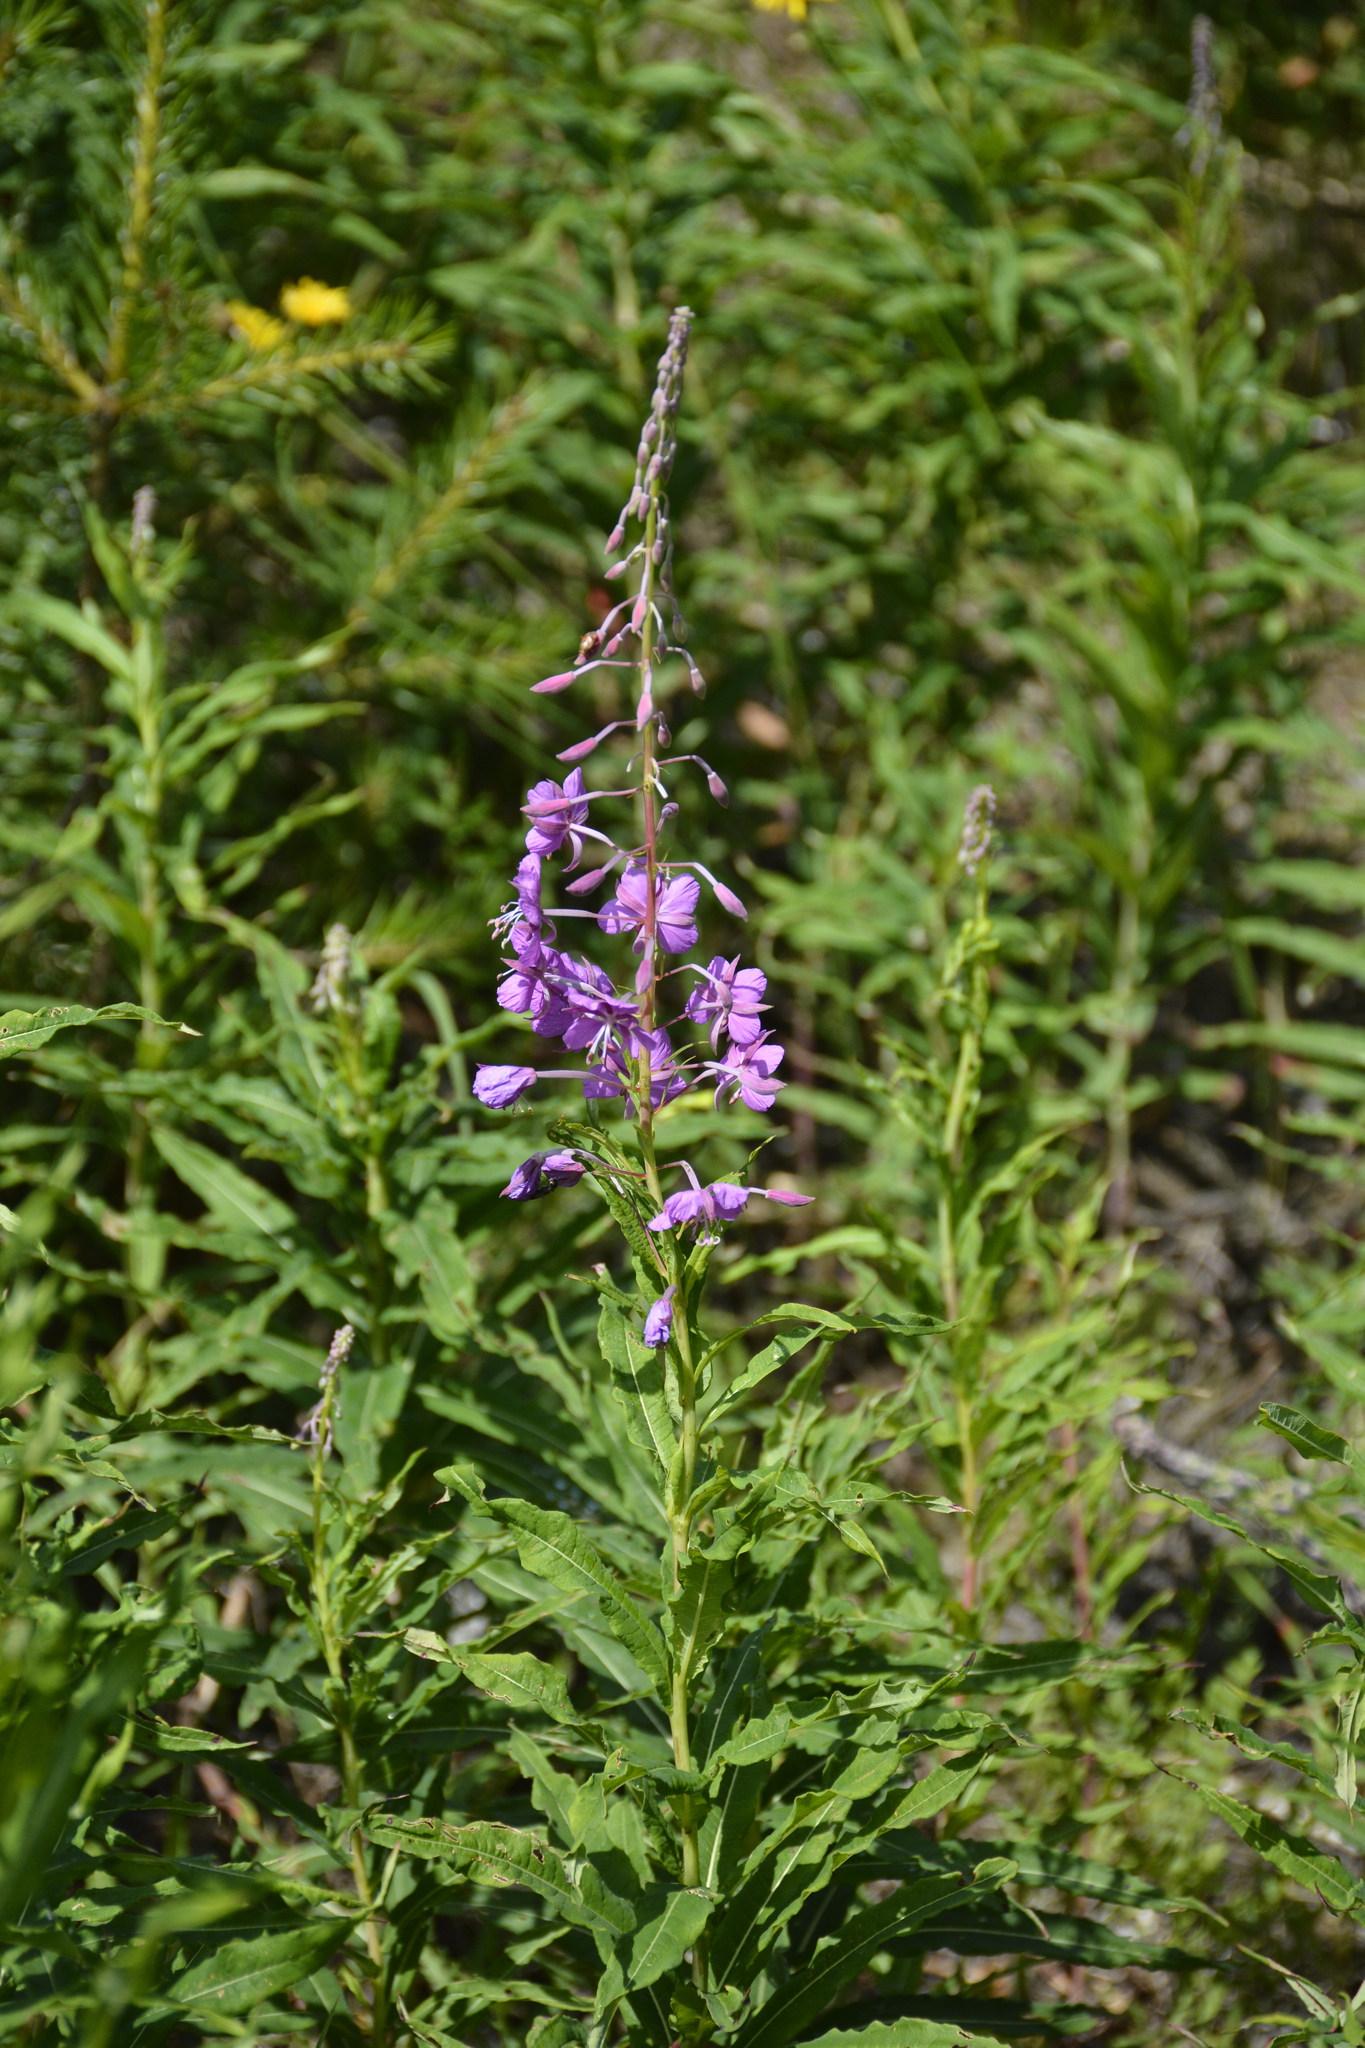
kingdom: Plantae
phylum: Tracheophyta
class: Magnoliopsida
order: Myrtales
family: Onagraceae
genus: Chamaenerion
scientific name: Chamaenerion angustifolium
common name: Fireweed
